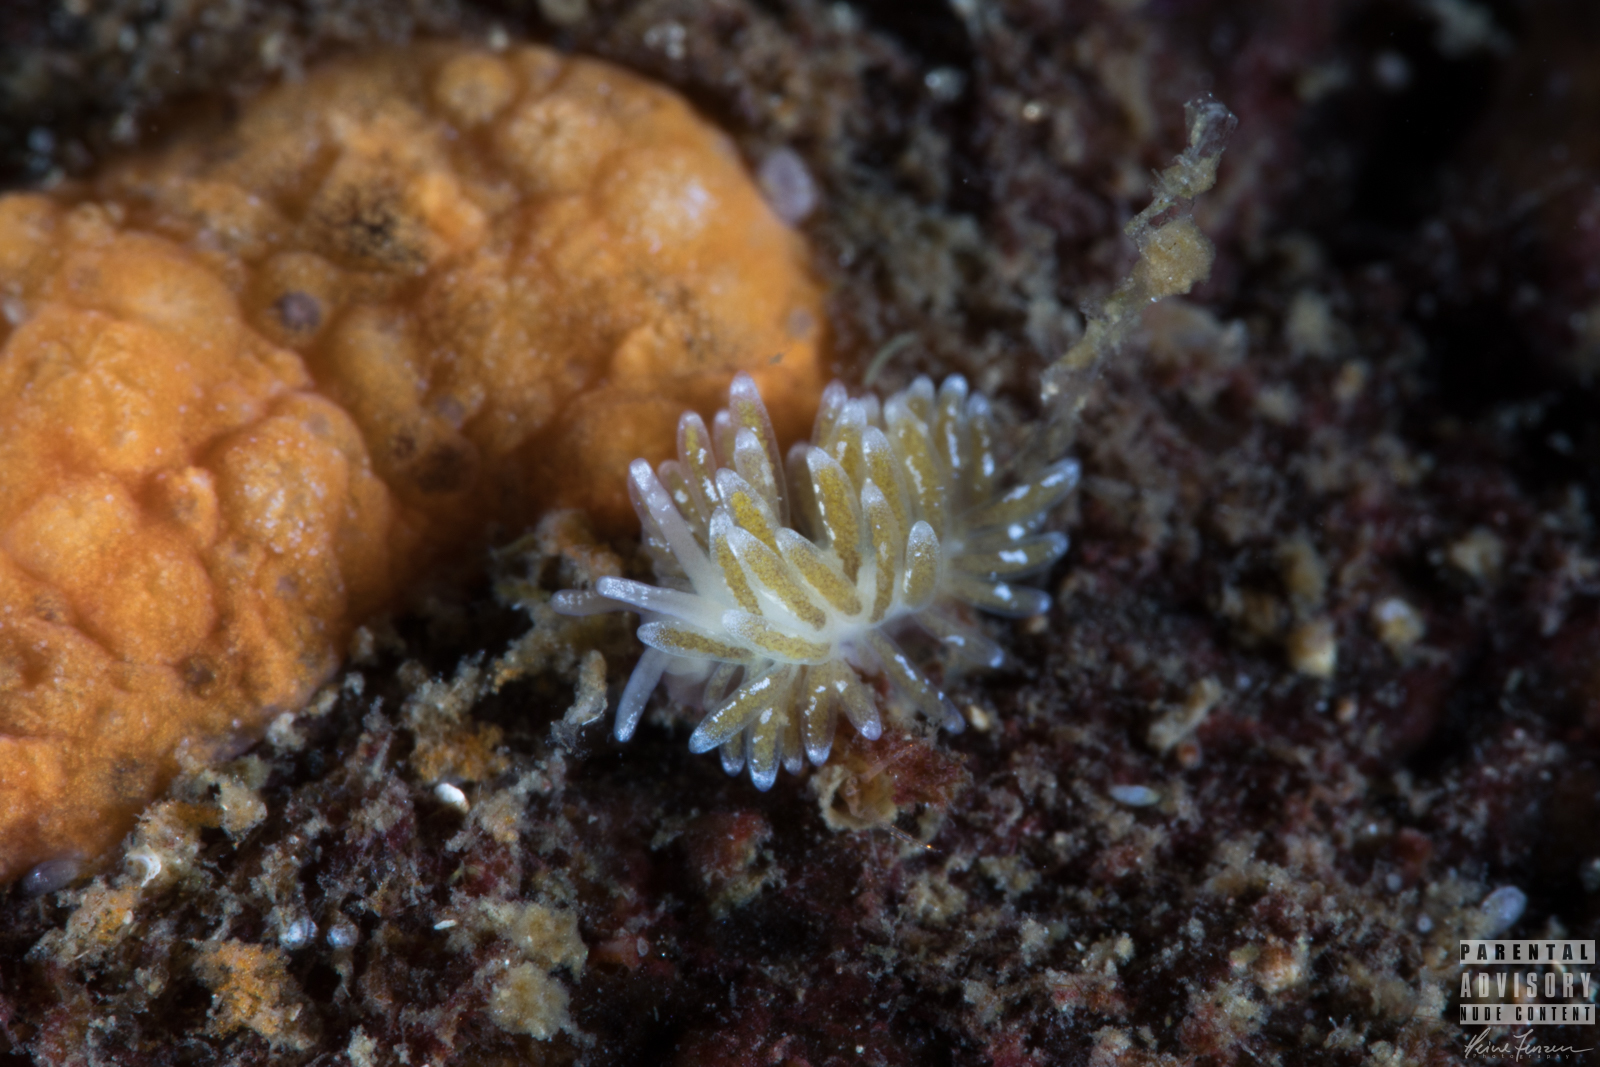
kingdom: Animalia
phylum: Mollusca
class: Gastropoda
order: Nudibranchia
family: Trinchesiidae
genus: Zelentia
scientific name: Zelentia pustulata
